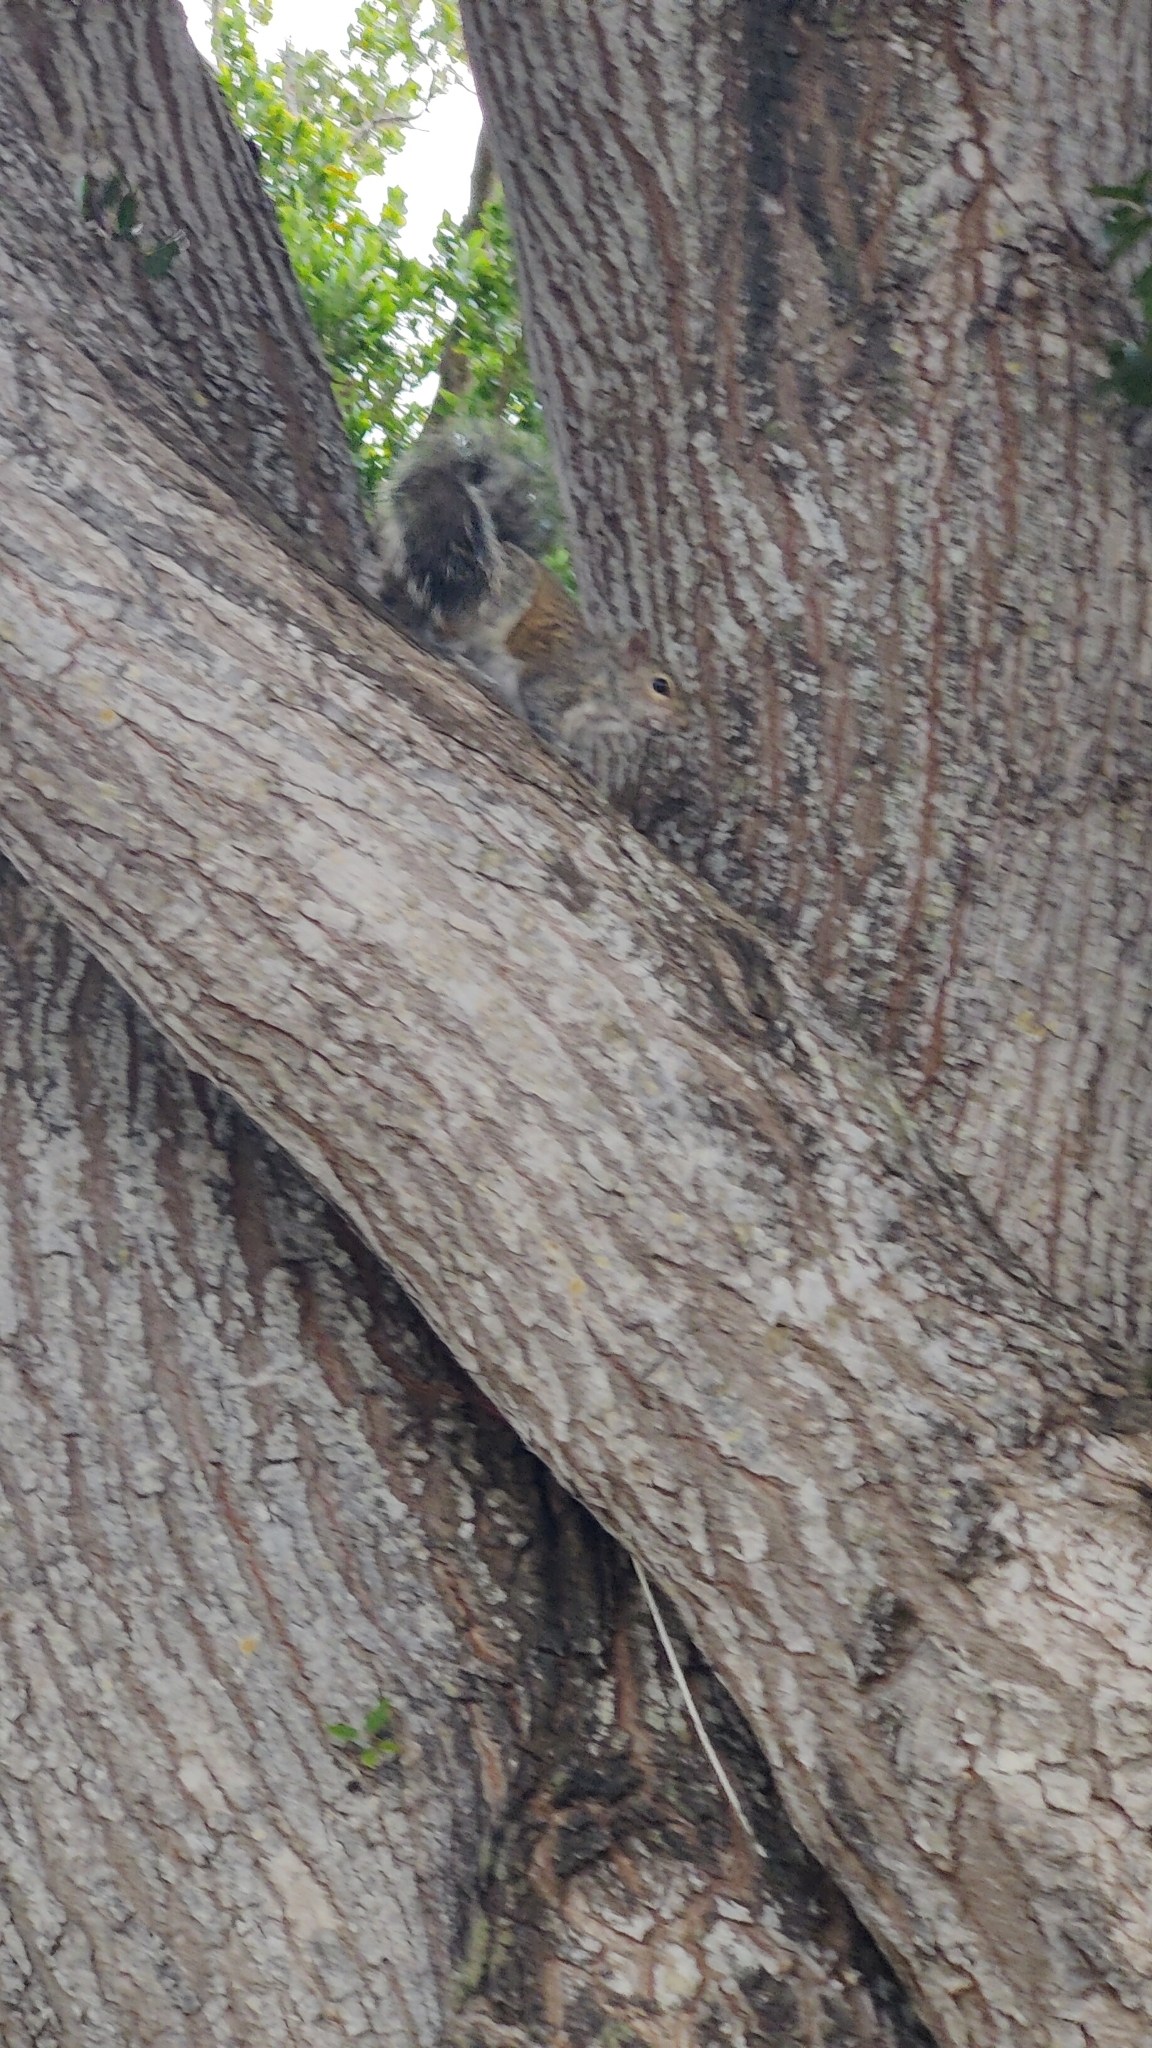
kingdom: Animalia
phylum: Chordata
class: Mammalia
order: Rodentia
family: Sciuridae
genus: Sciurus
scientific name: Sciurus carolinensis
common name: Eastern gray squirrel
